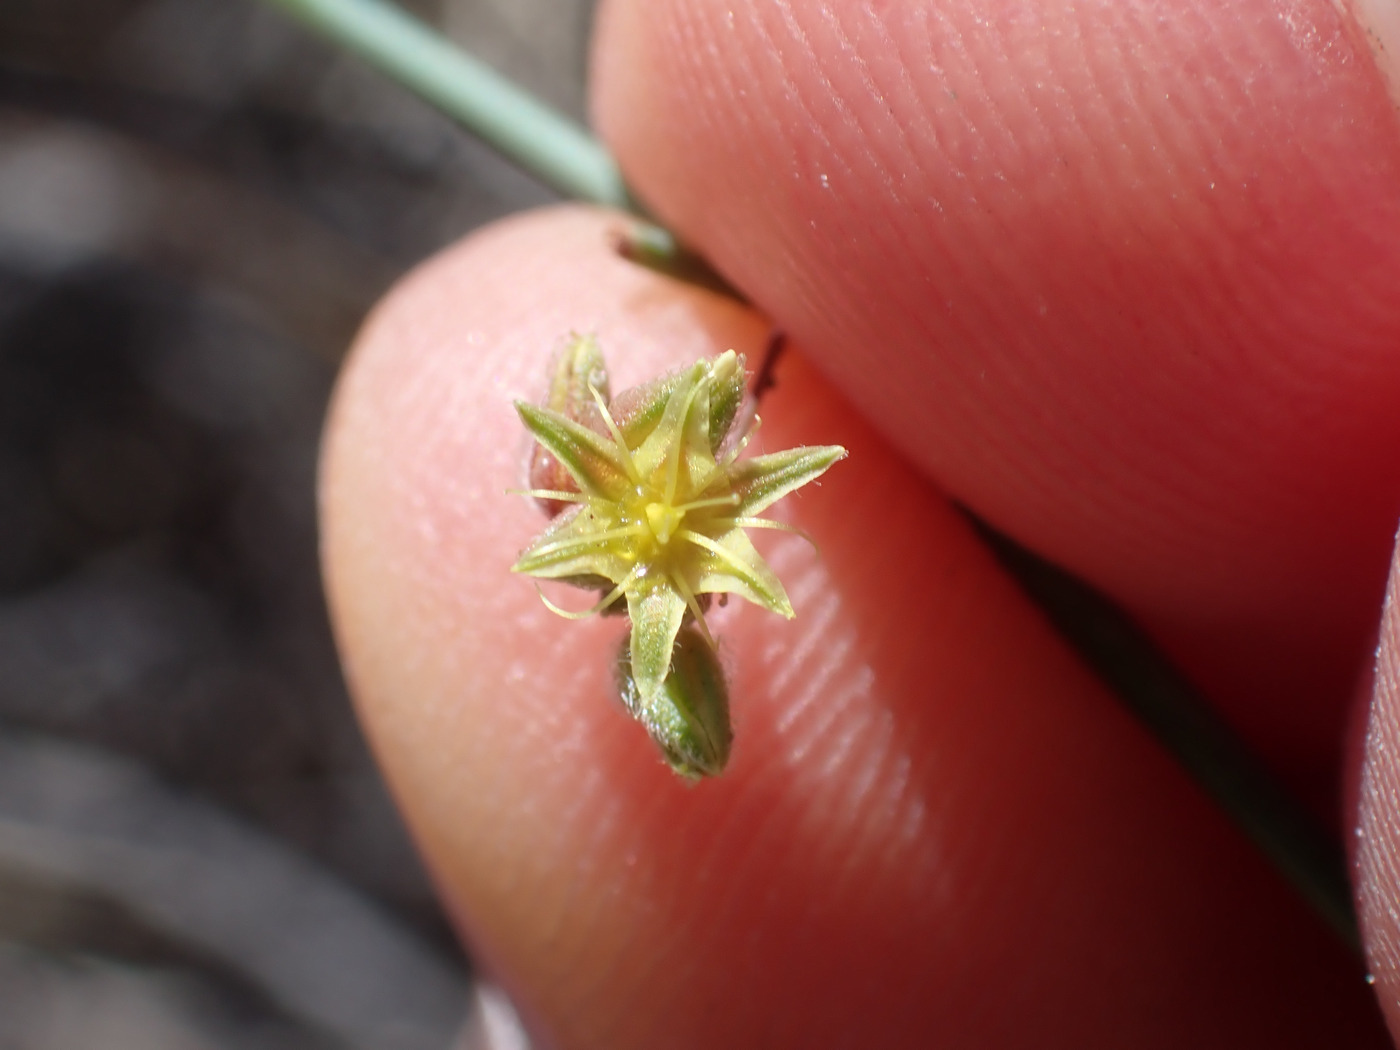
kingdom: Plantae
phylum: Tracheophyta
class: Magnoliopsida
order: Caryophyllales
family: Polygonaceae
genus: Eriogonum
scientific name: Eriogonum inflatum
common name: Desert trumpet
